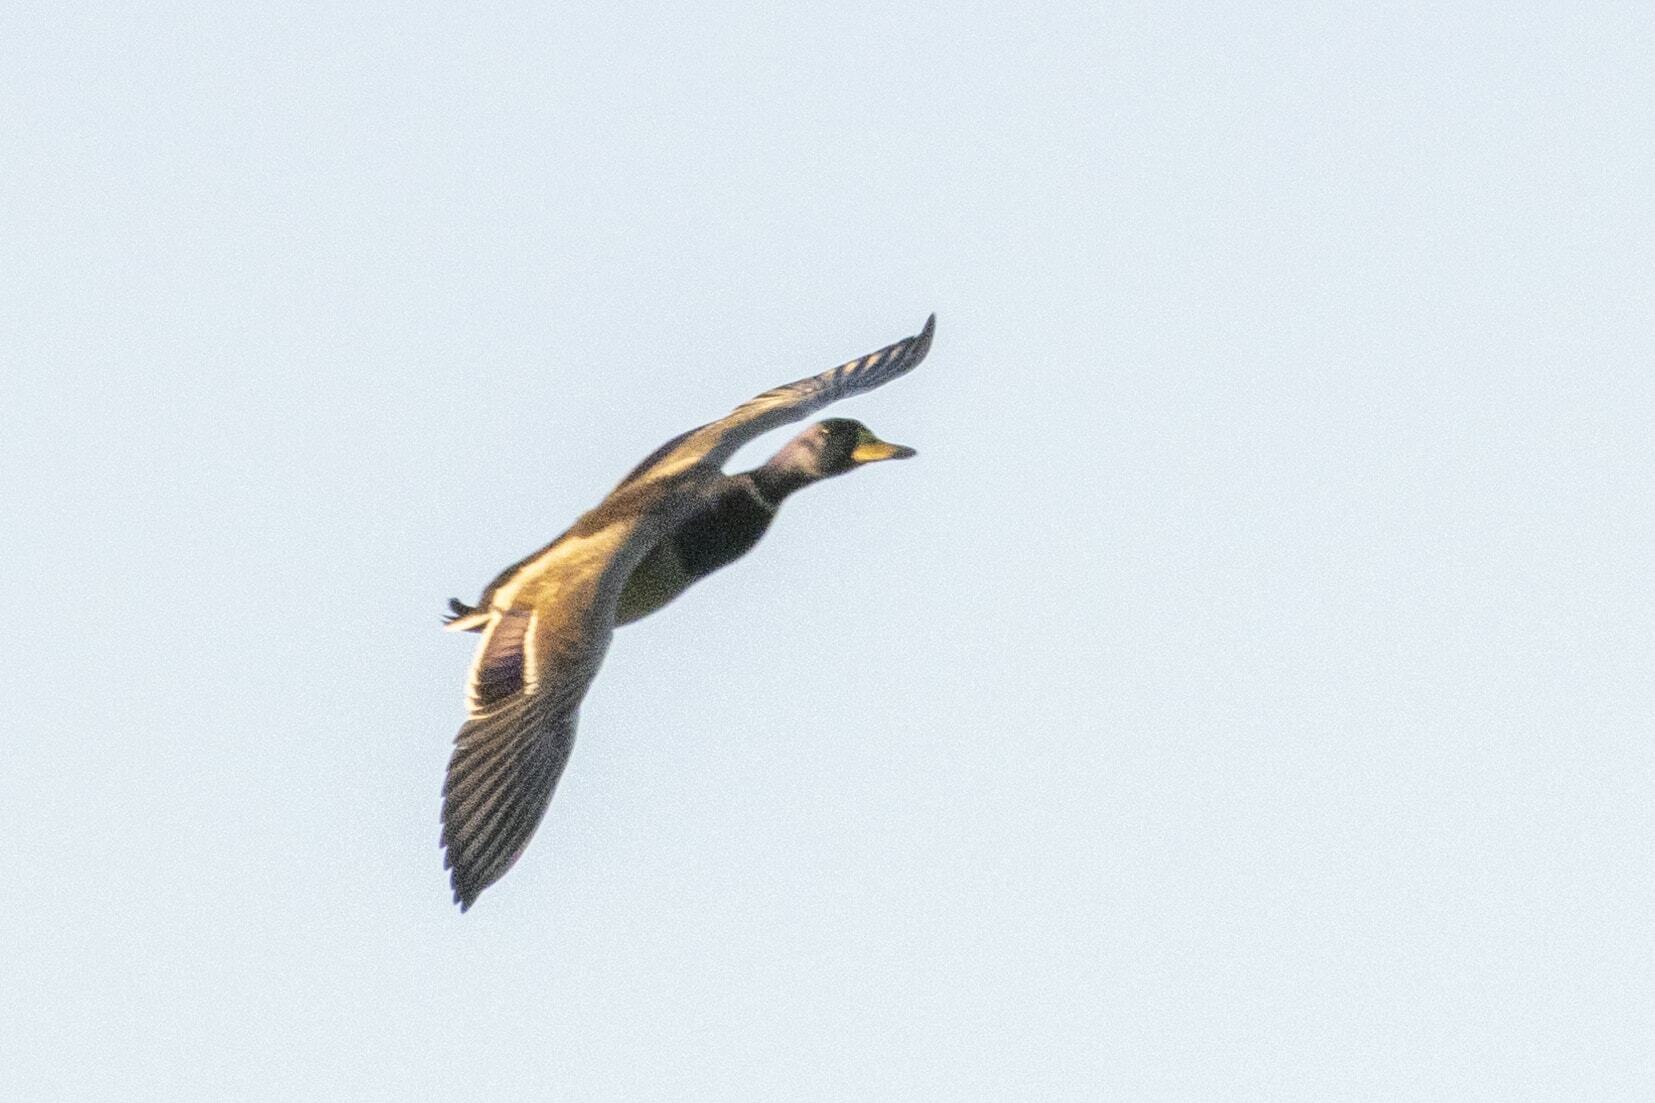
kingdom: Animalia
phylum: Chordata
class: Aves
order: Anseriformes
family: Anatidae
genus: Anas
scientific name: Anas platyrhynchos
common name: Mallard
